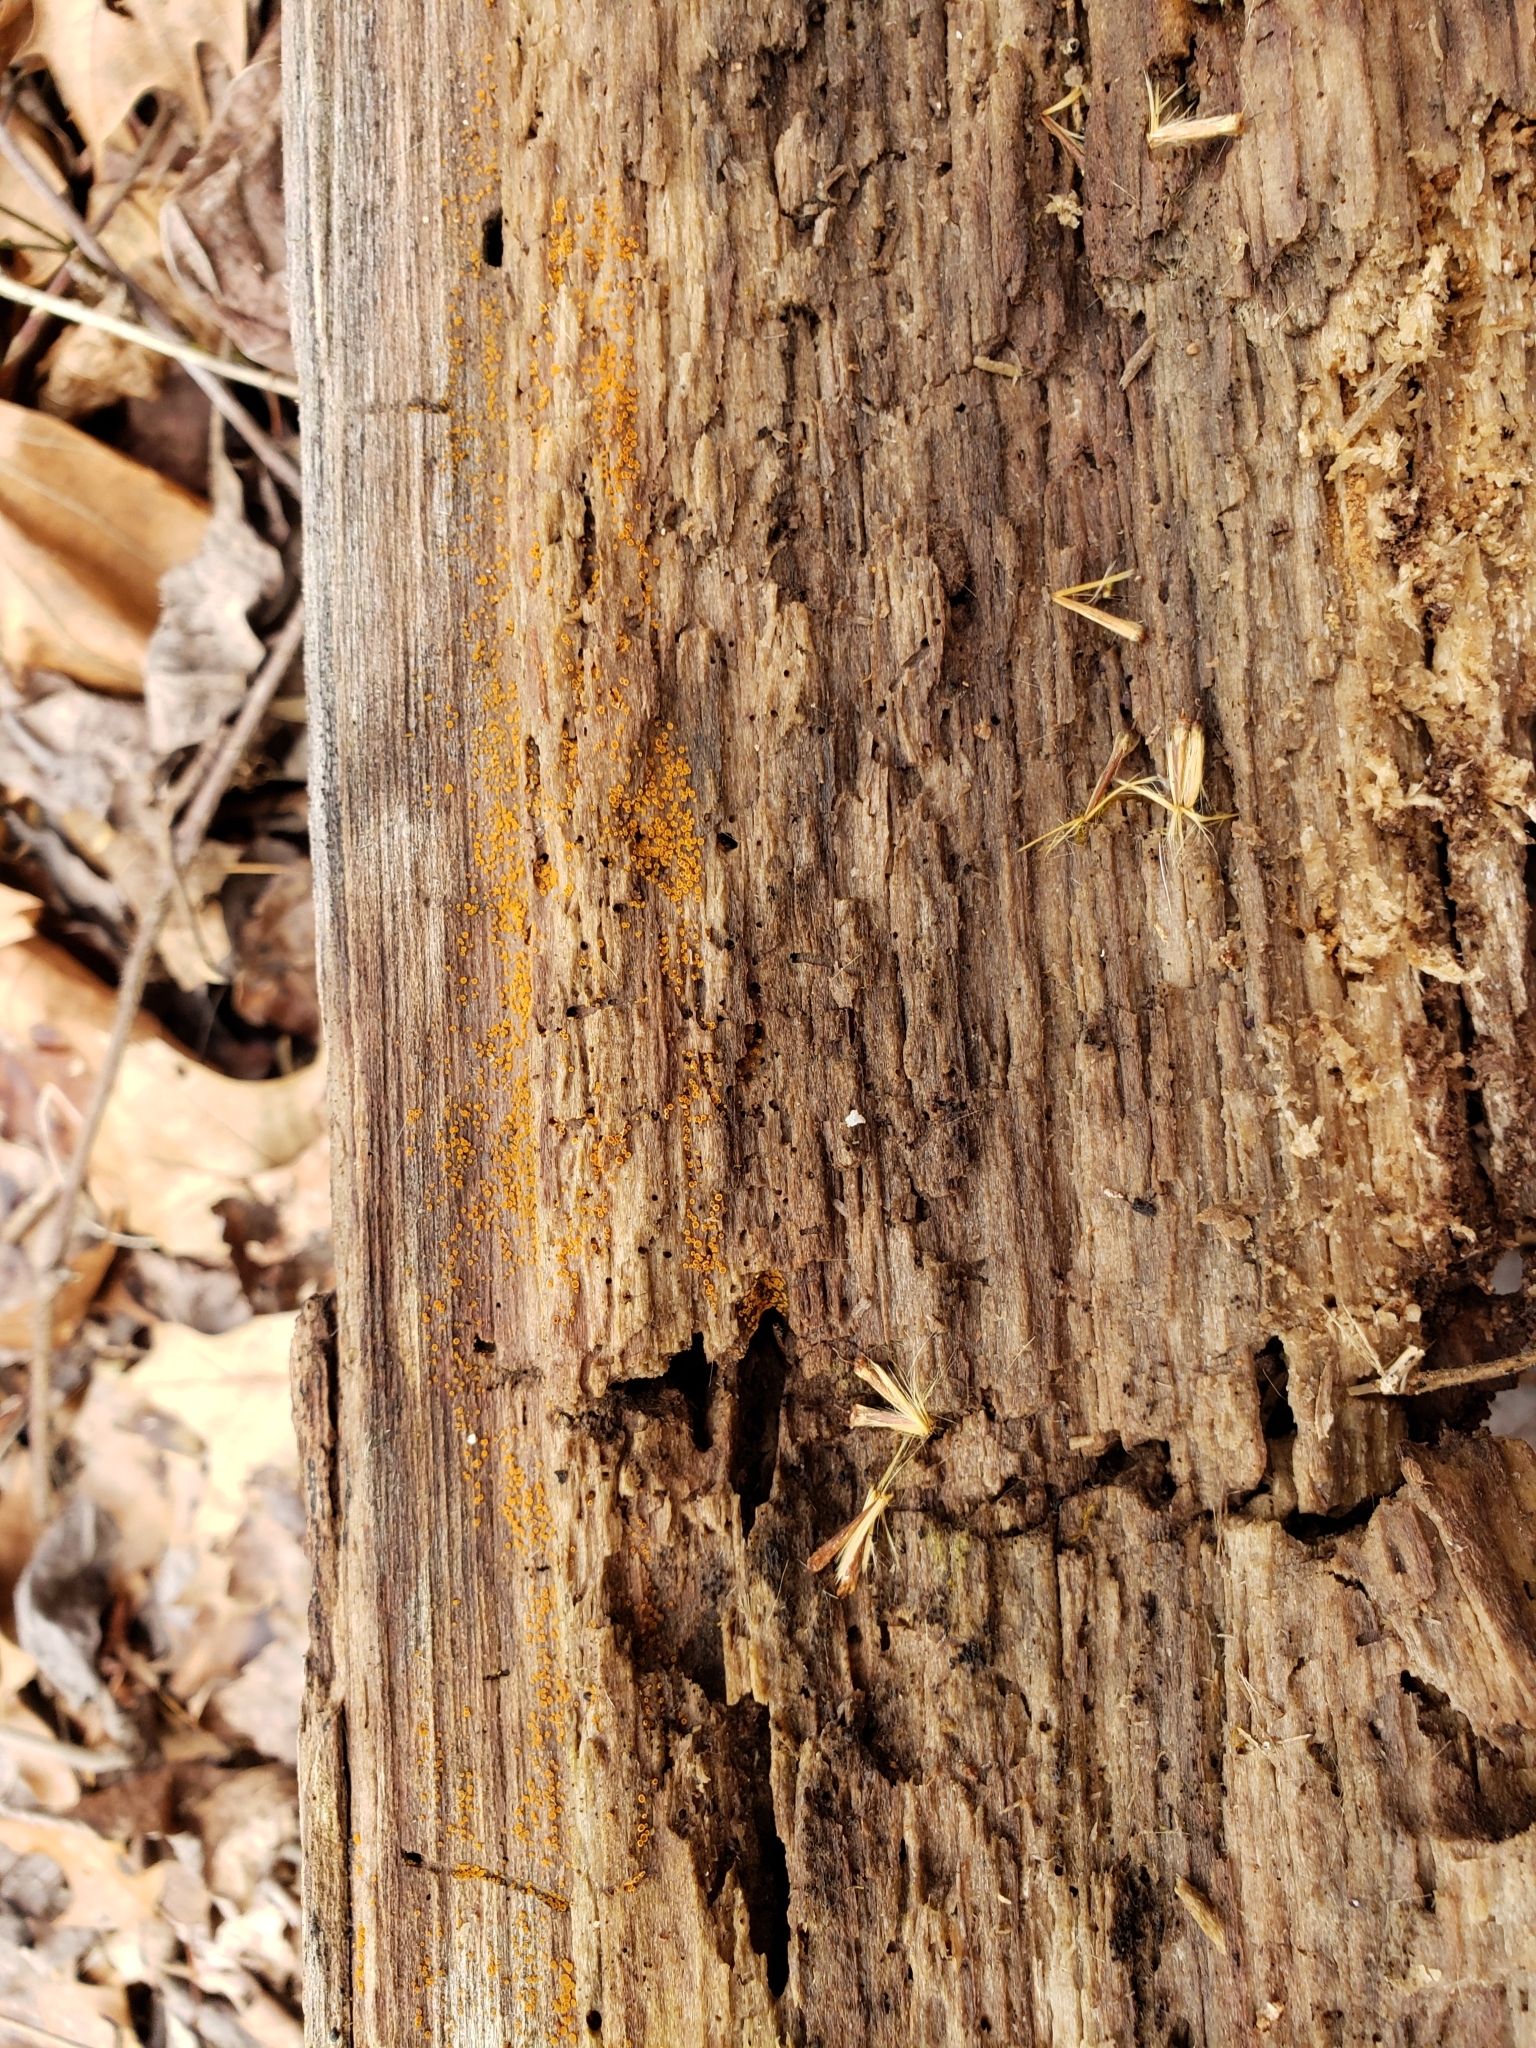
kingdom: Fungi
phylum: Ascomycota
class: Leotiomycetes
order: Helotiales
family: Arachnopezizaceae
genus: Arachnopeziza
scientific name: Arachnopeziza trabinelloides
